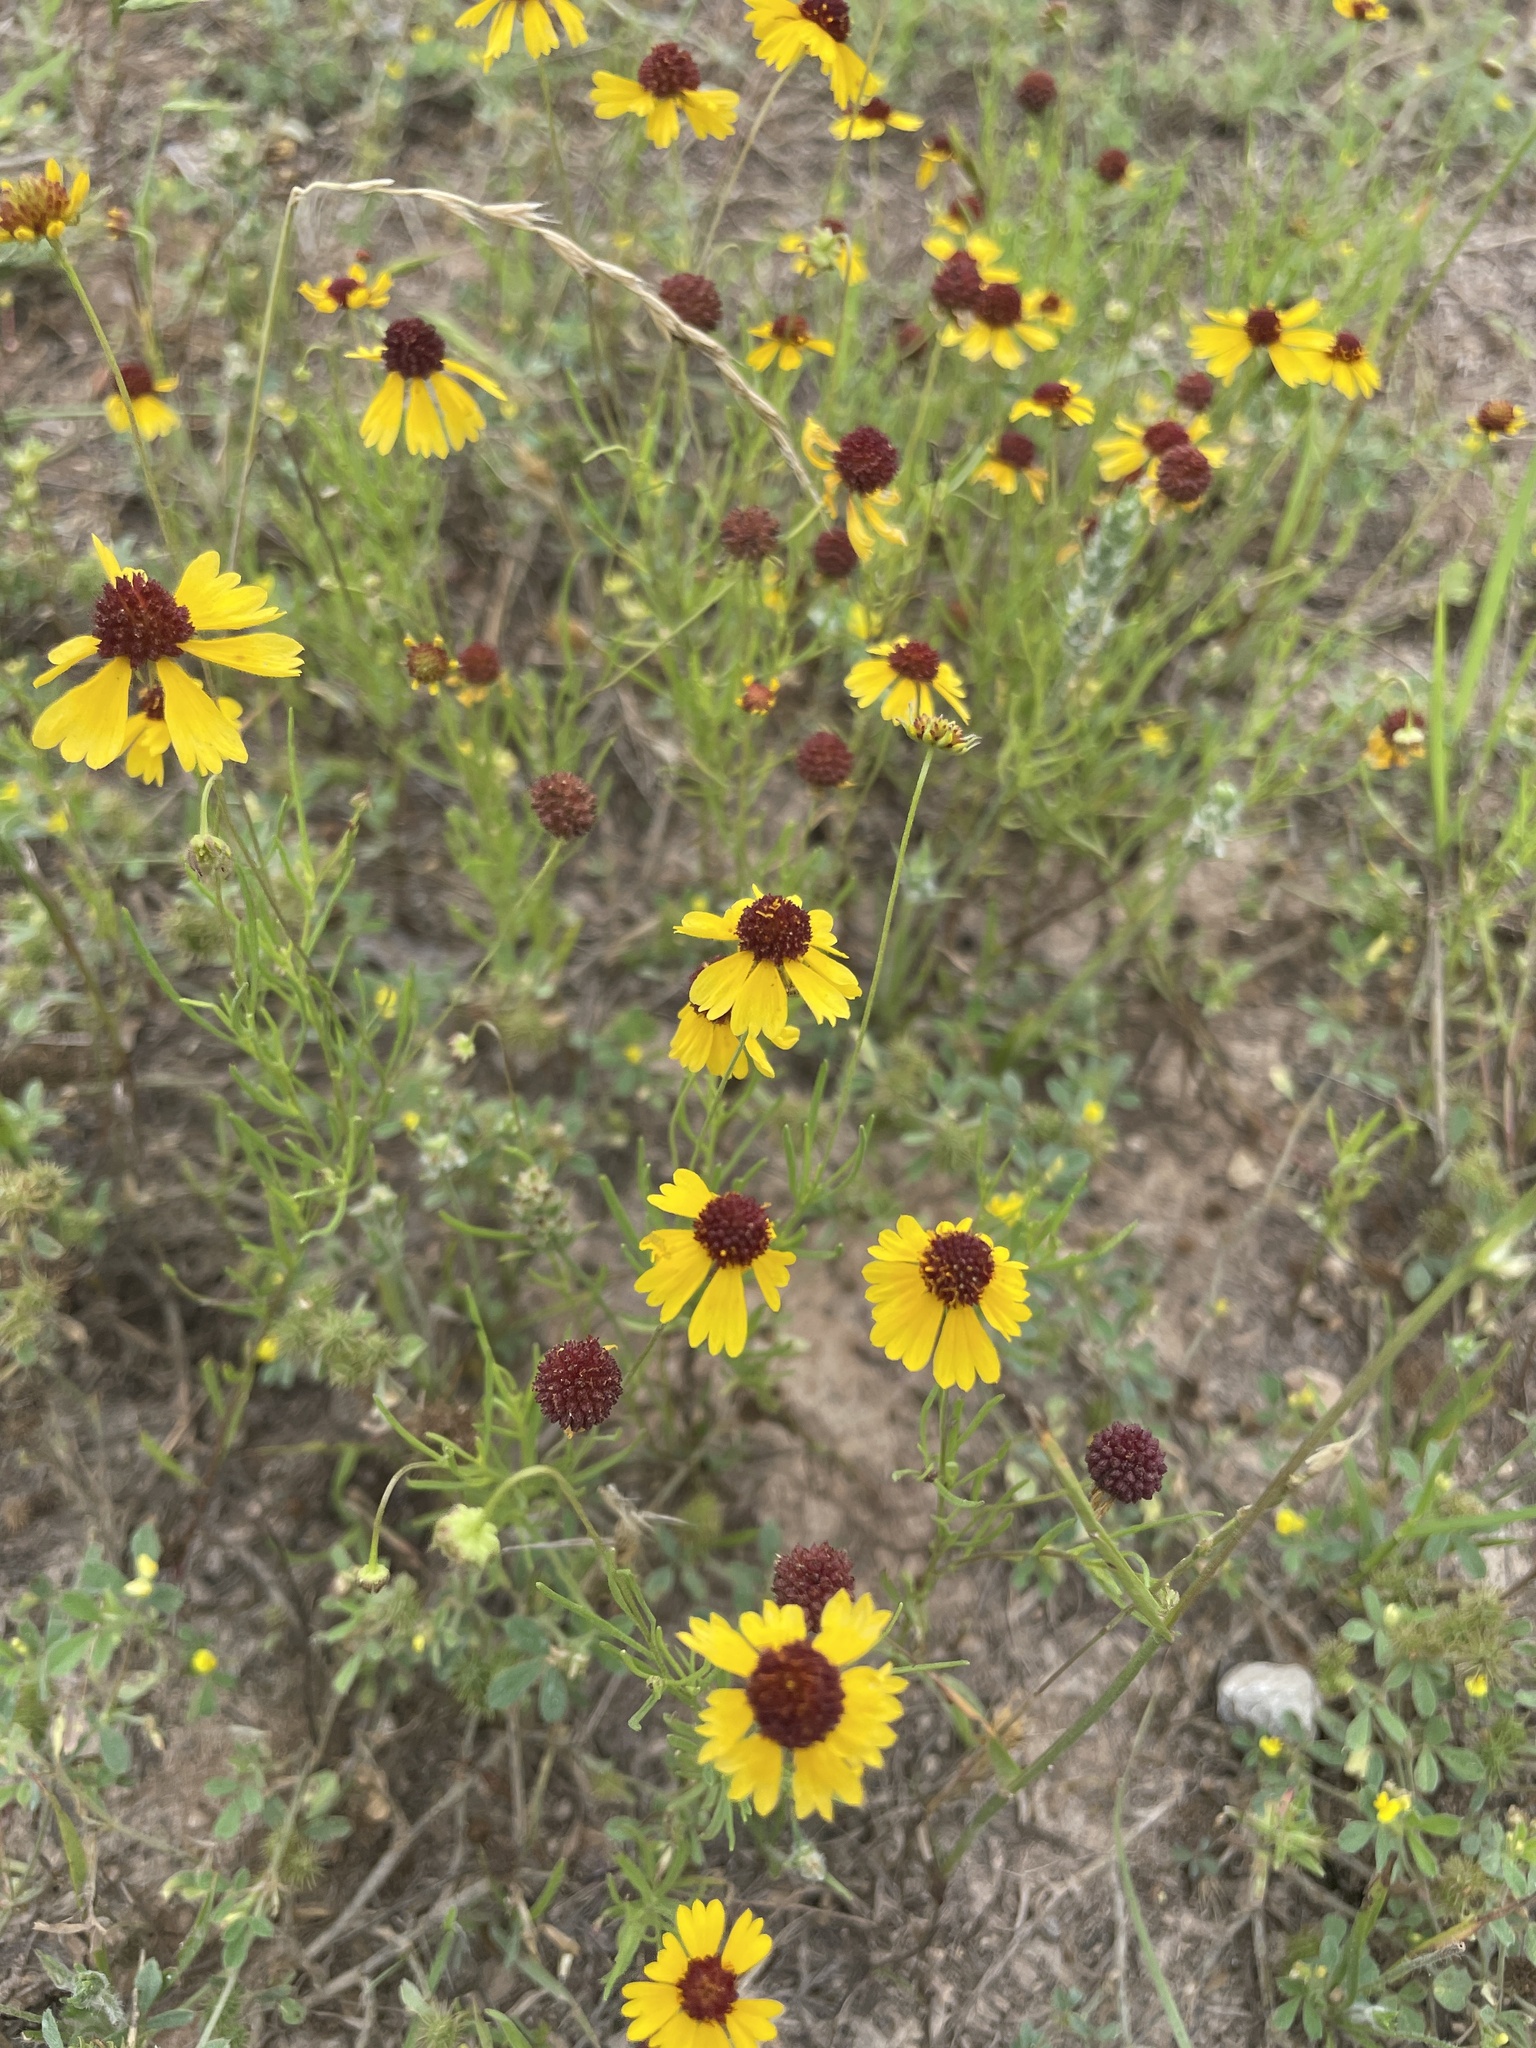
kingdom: Plantae
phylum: Tracheophyta
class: Magnoliopsida
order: Asterales
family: Asteraceae
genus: Helenium
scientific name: Helenium amarum
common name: Bitter sneezeweed
